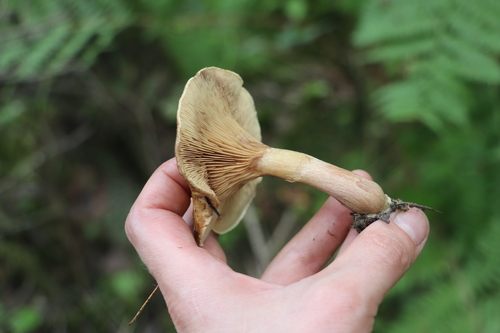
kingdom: Fungi
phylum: Basidiomycota
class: Agaricomycetes
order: Boletales
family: Paxillaceae
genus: Paxillus
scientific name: Paxillus involutus
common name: Brown roll rim
